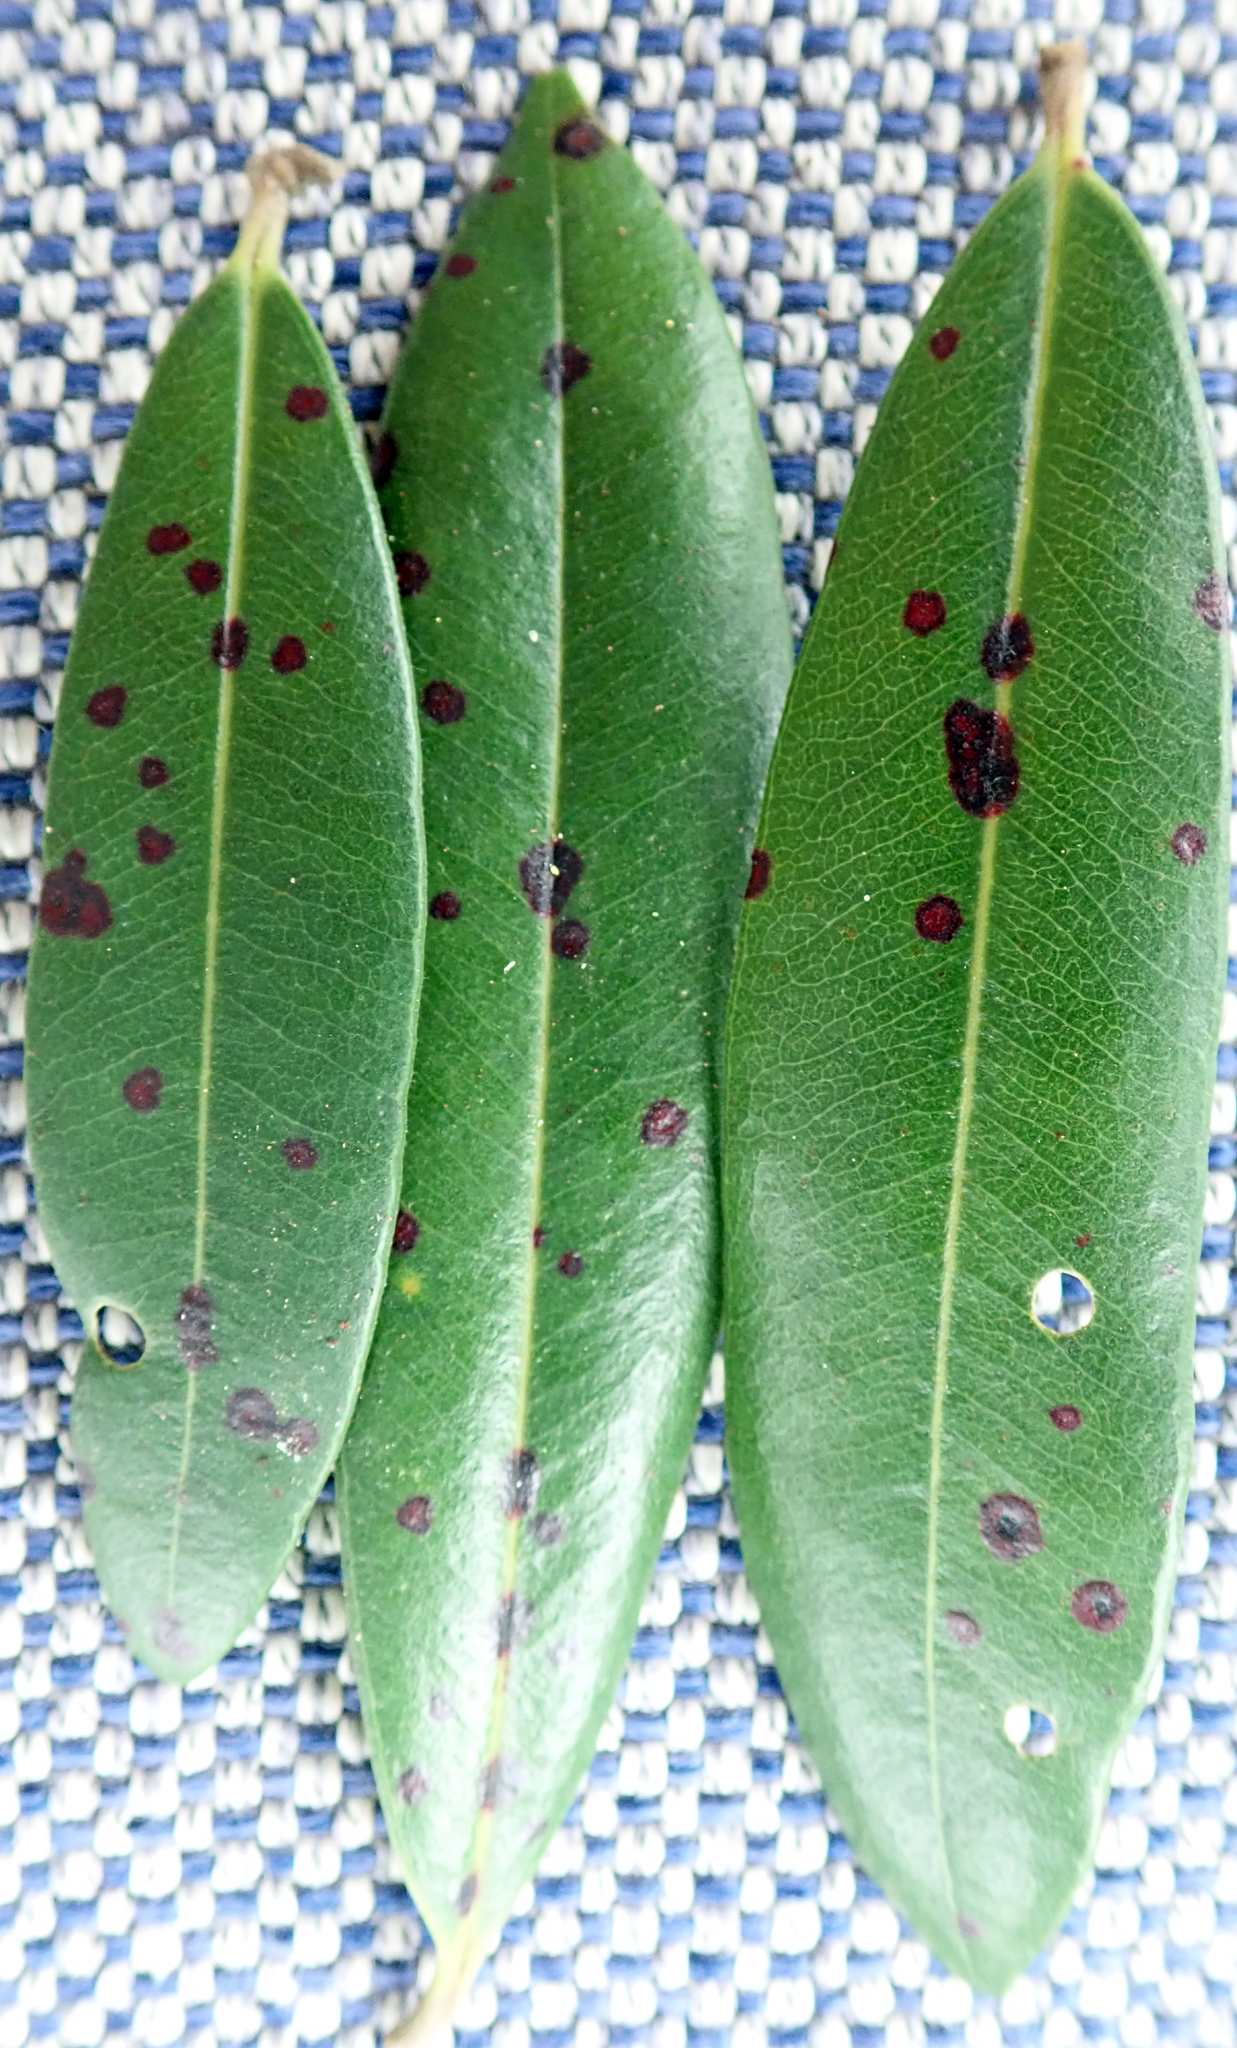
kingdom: Fungi
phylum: Ascomycota
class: Dothideomycetes
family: Thyrinulaceae
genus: Blastacervulus
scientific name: Blastacervulus metrosideri
